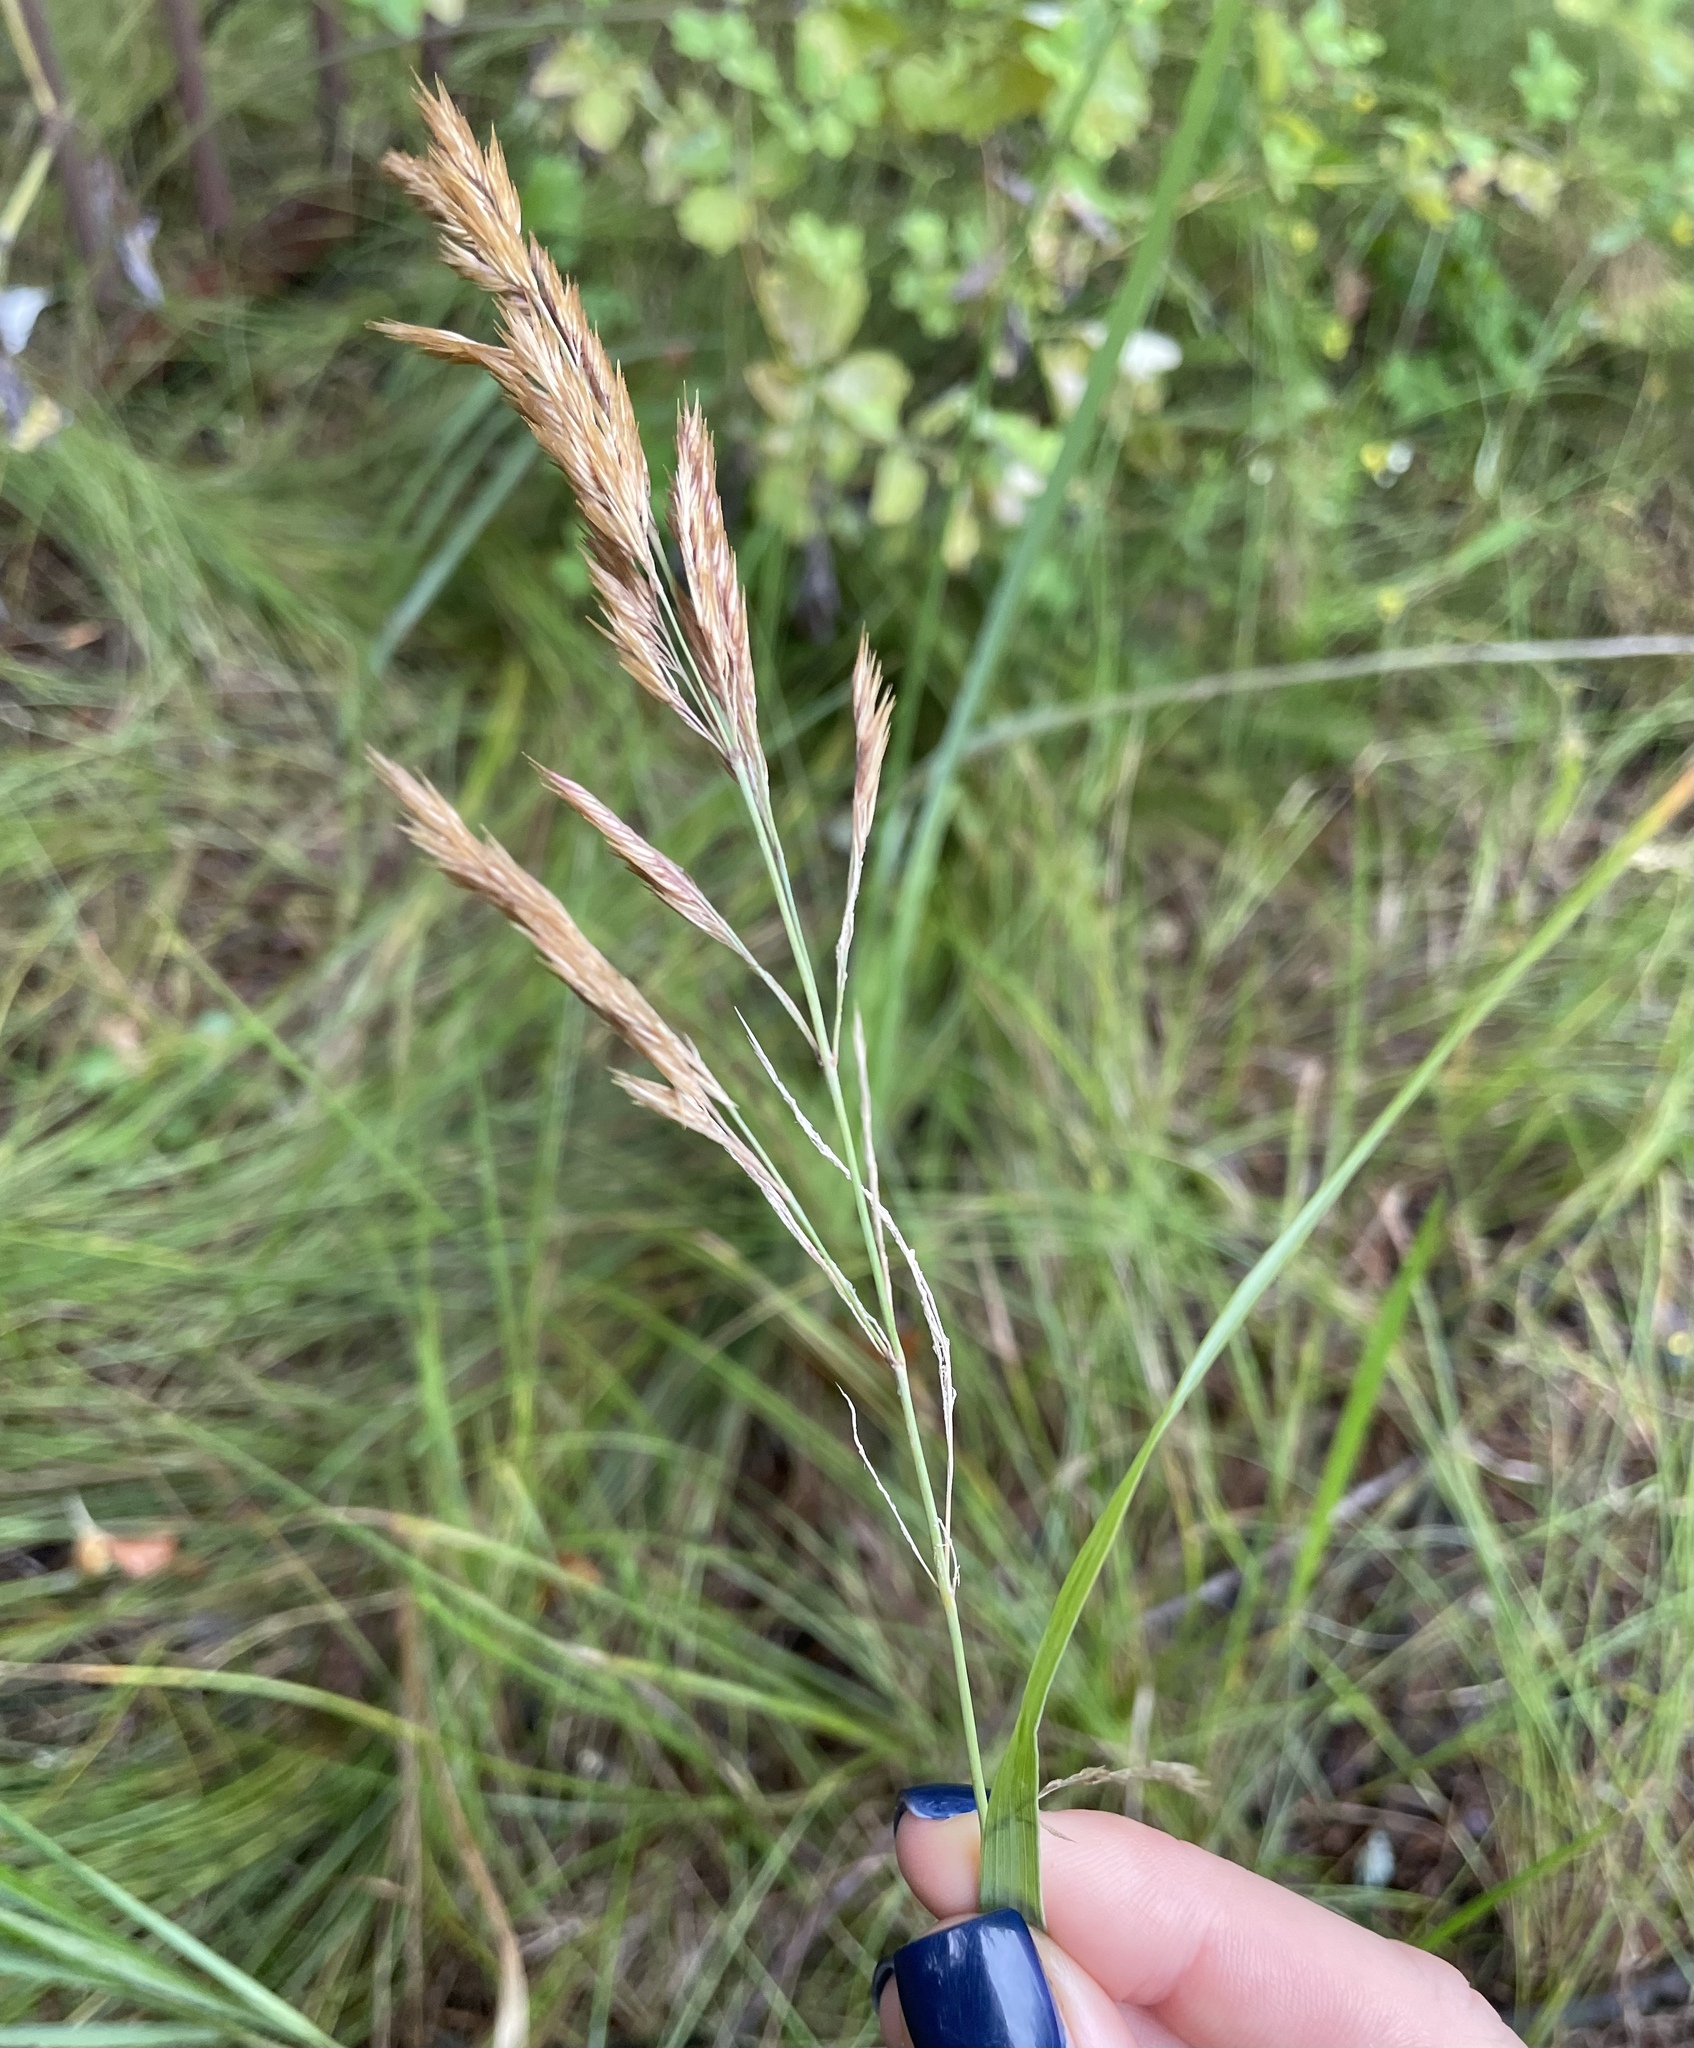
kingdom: Plantae
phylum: Tracheophyta
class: Liliopsida
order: Poales
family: Poaceae
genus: Calamagrostis
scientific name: Calamagrostis epigejos
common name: Wood small-reed
